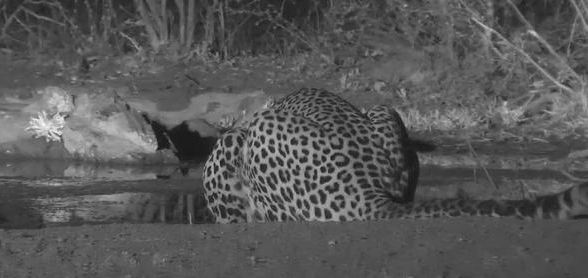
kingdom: Animalia
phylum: Chordata
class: Mammalia
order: Carnivora
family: Felidae
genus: Panthera
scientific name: Panthera pardus
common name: Leopard
